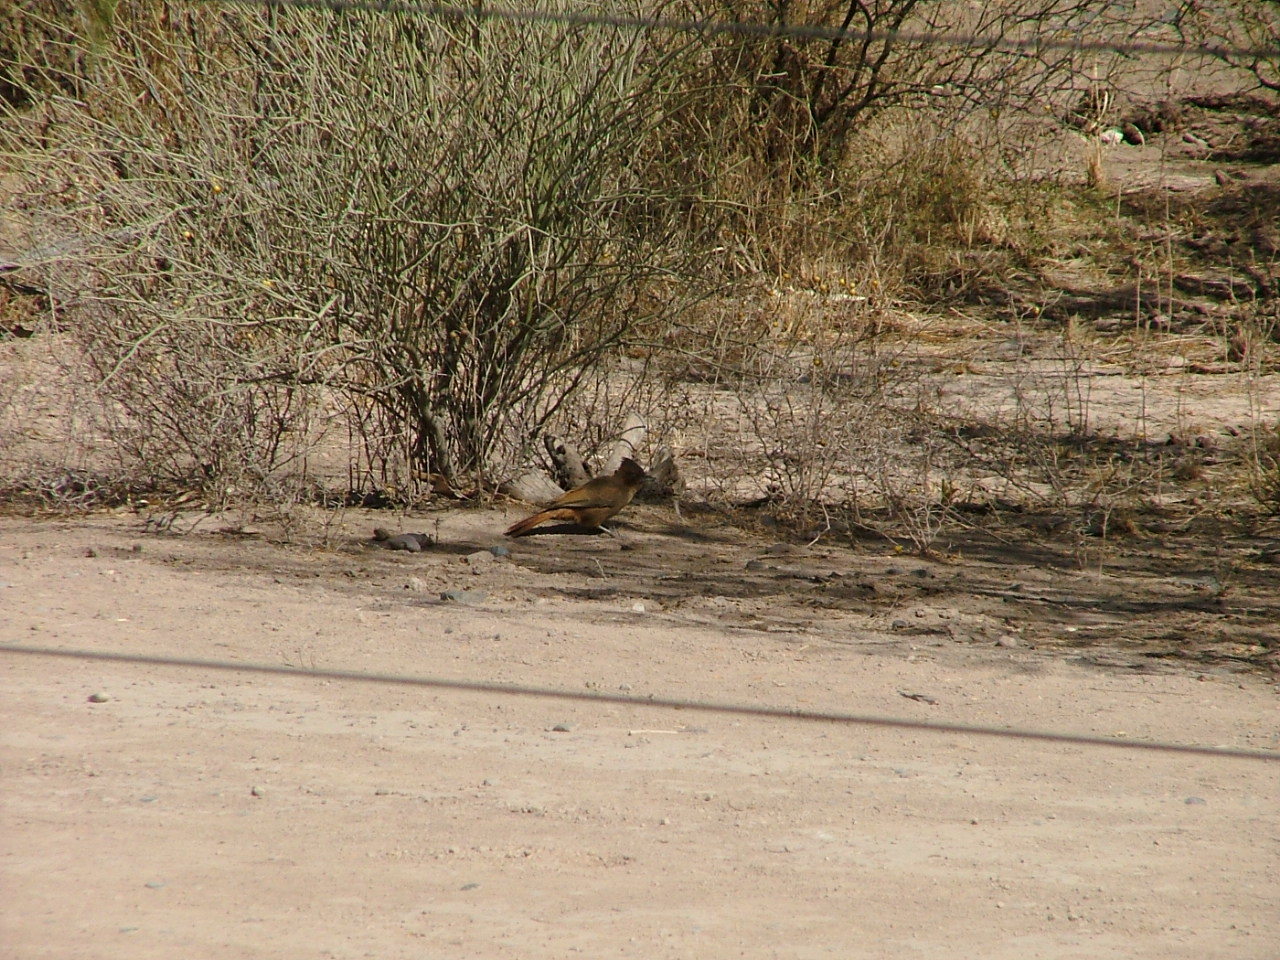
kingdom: Animalia
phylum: Chordata
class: Aves
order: Passeriformes
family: Furnariidae
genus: Pseudoseisura
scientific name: Pseudoseisura lophotes
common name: Brown cacholote
